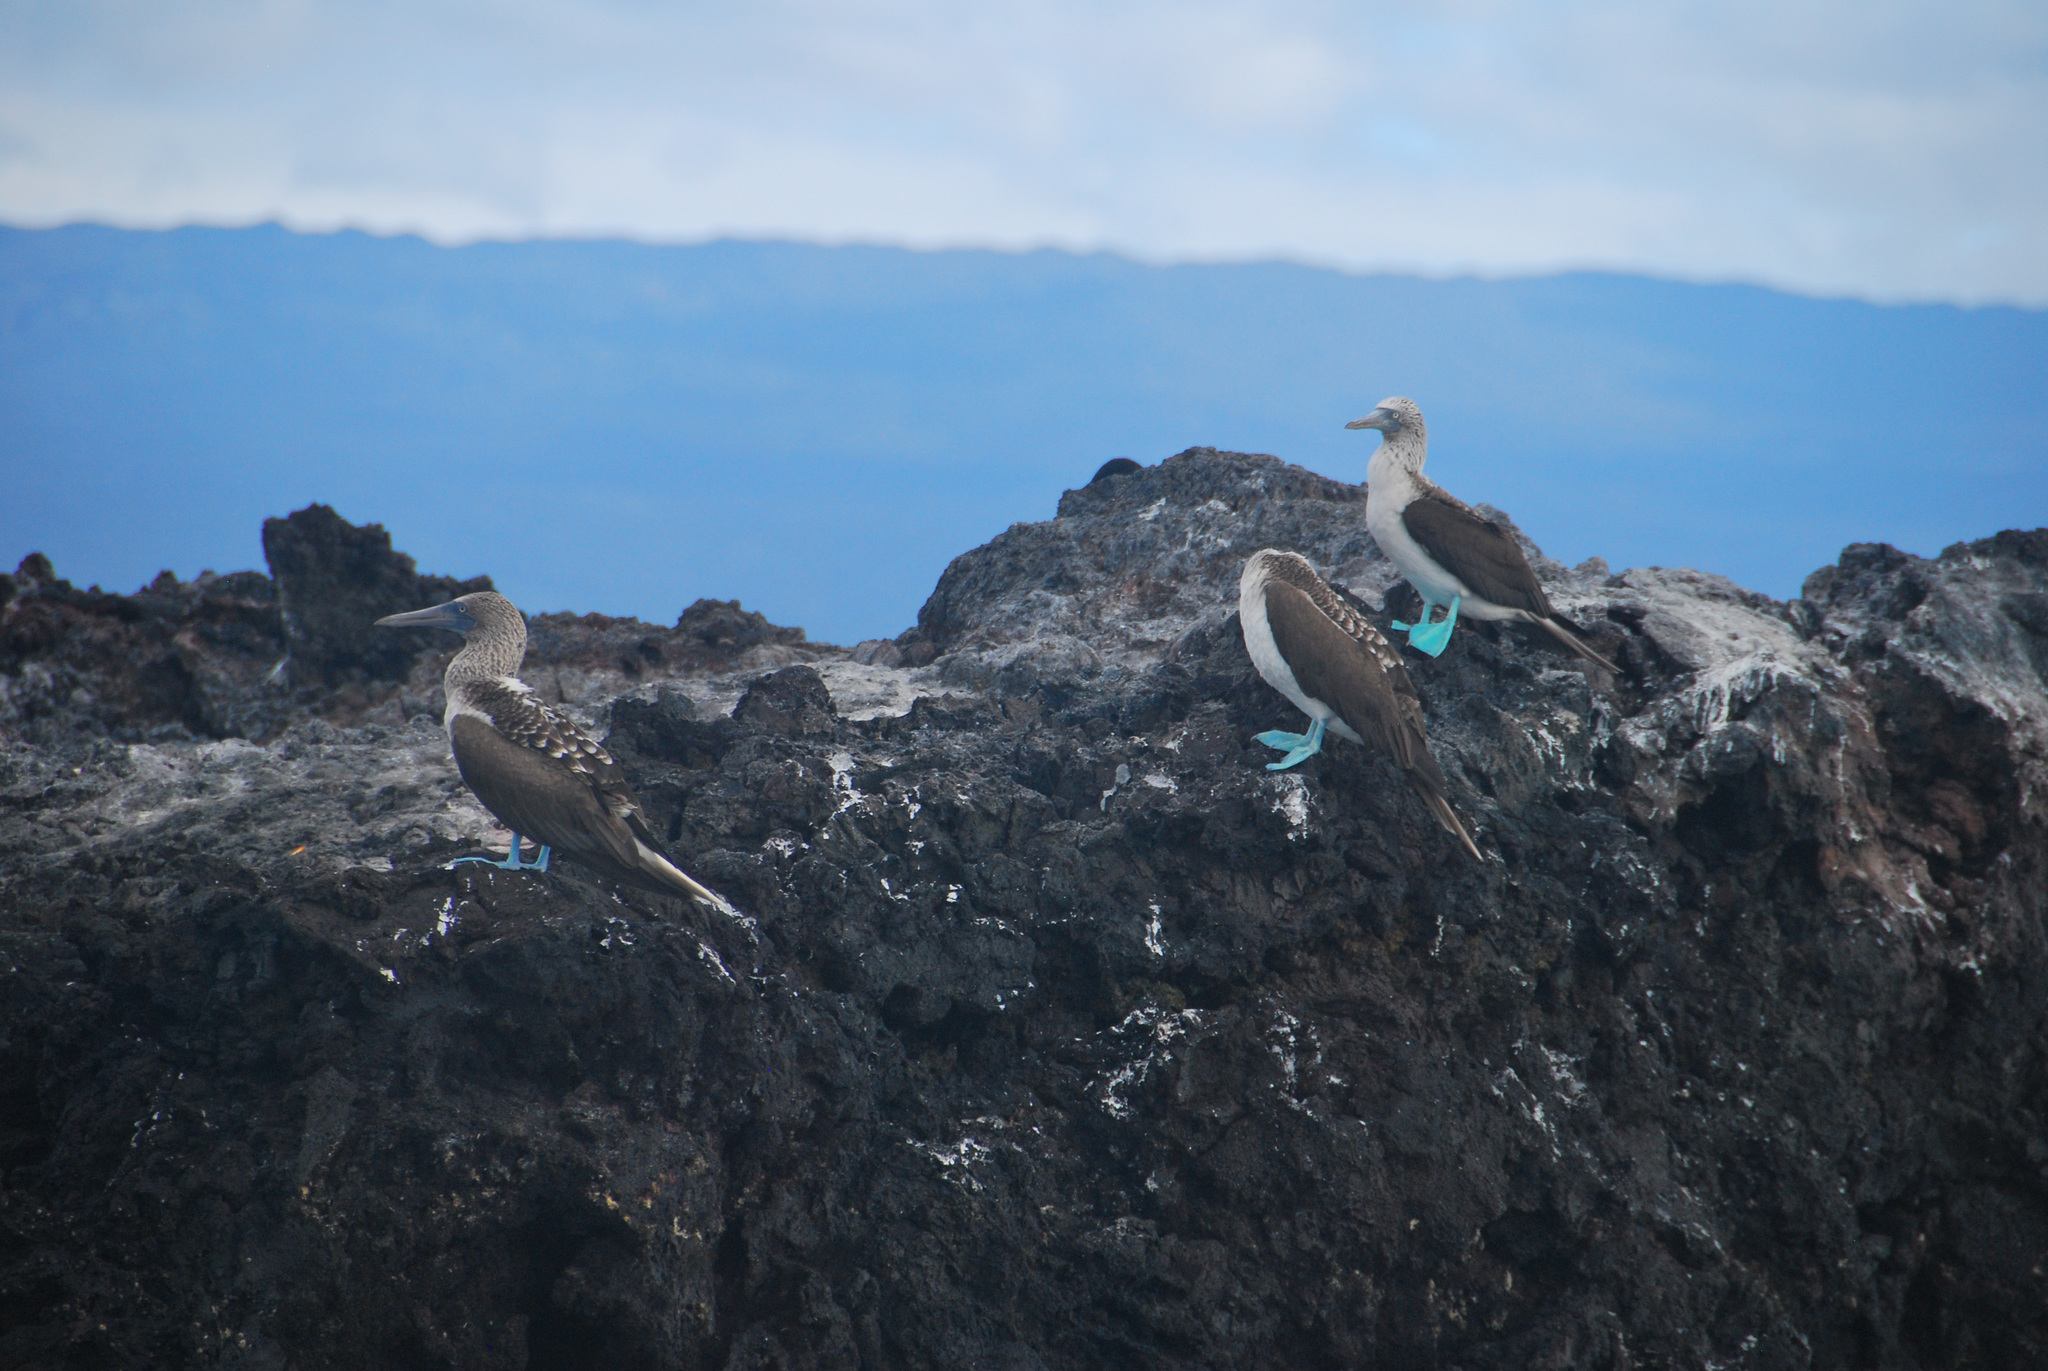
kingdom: Animalia
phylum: Chordata
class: Aves
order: Suliformes
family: Sulidae
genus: Sula
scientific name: Sula nebouxii
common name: Blue-footed booby
